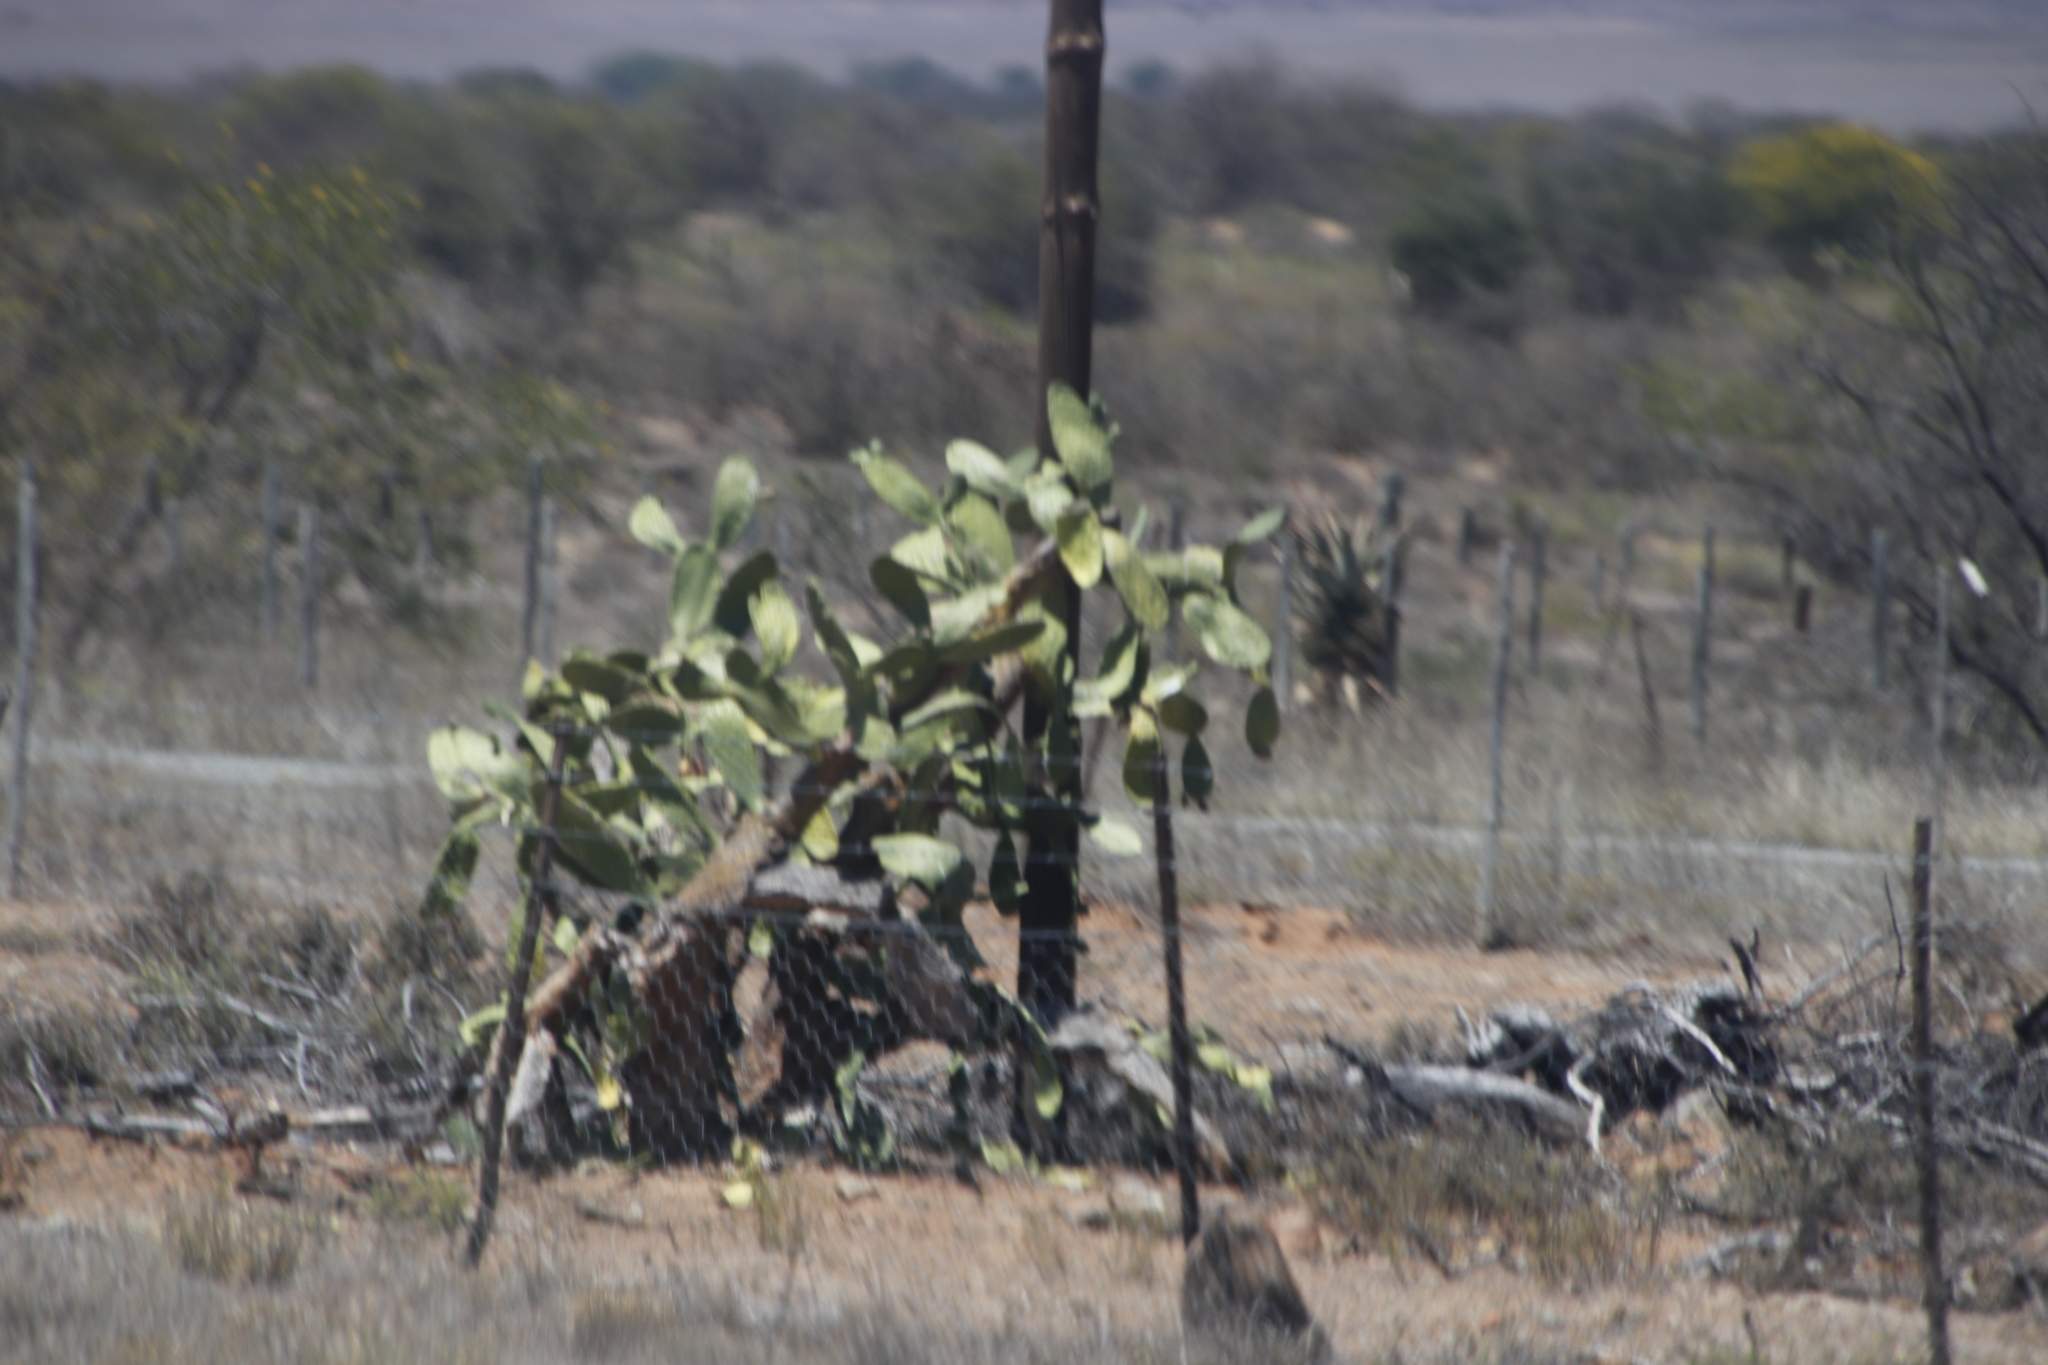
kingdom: Plantae
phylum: Tracheophyta
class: Magnoliopsida
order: Caryophyllales
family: Cactaceae
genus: Opuntia
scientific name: Opuntia ficus-indica
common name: Barbary fig
